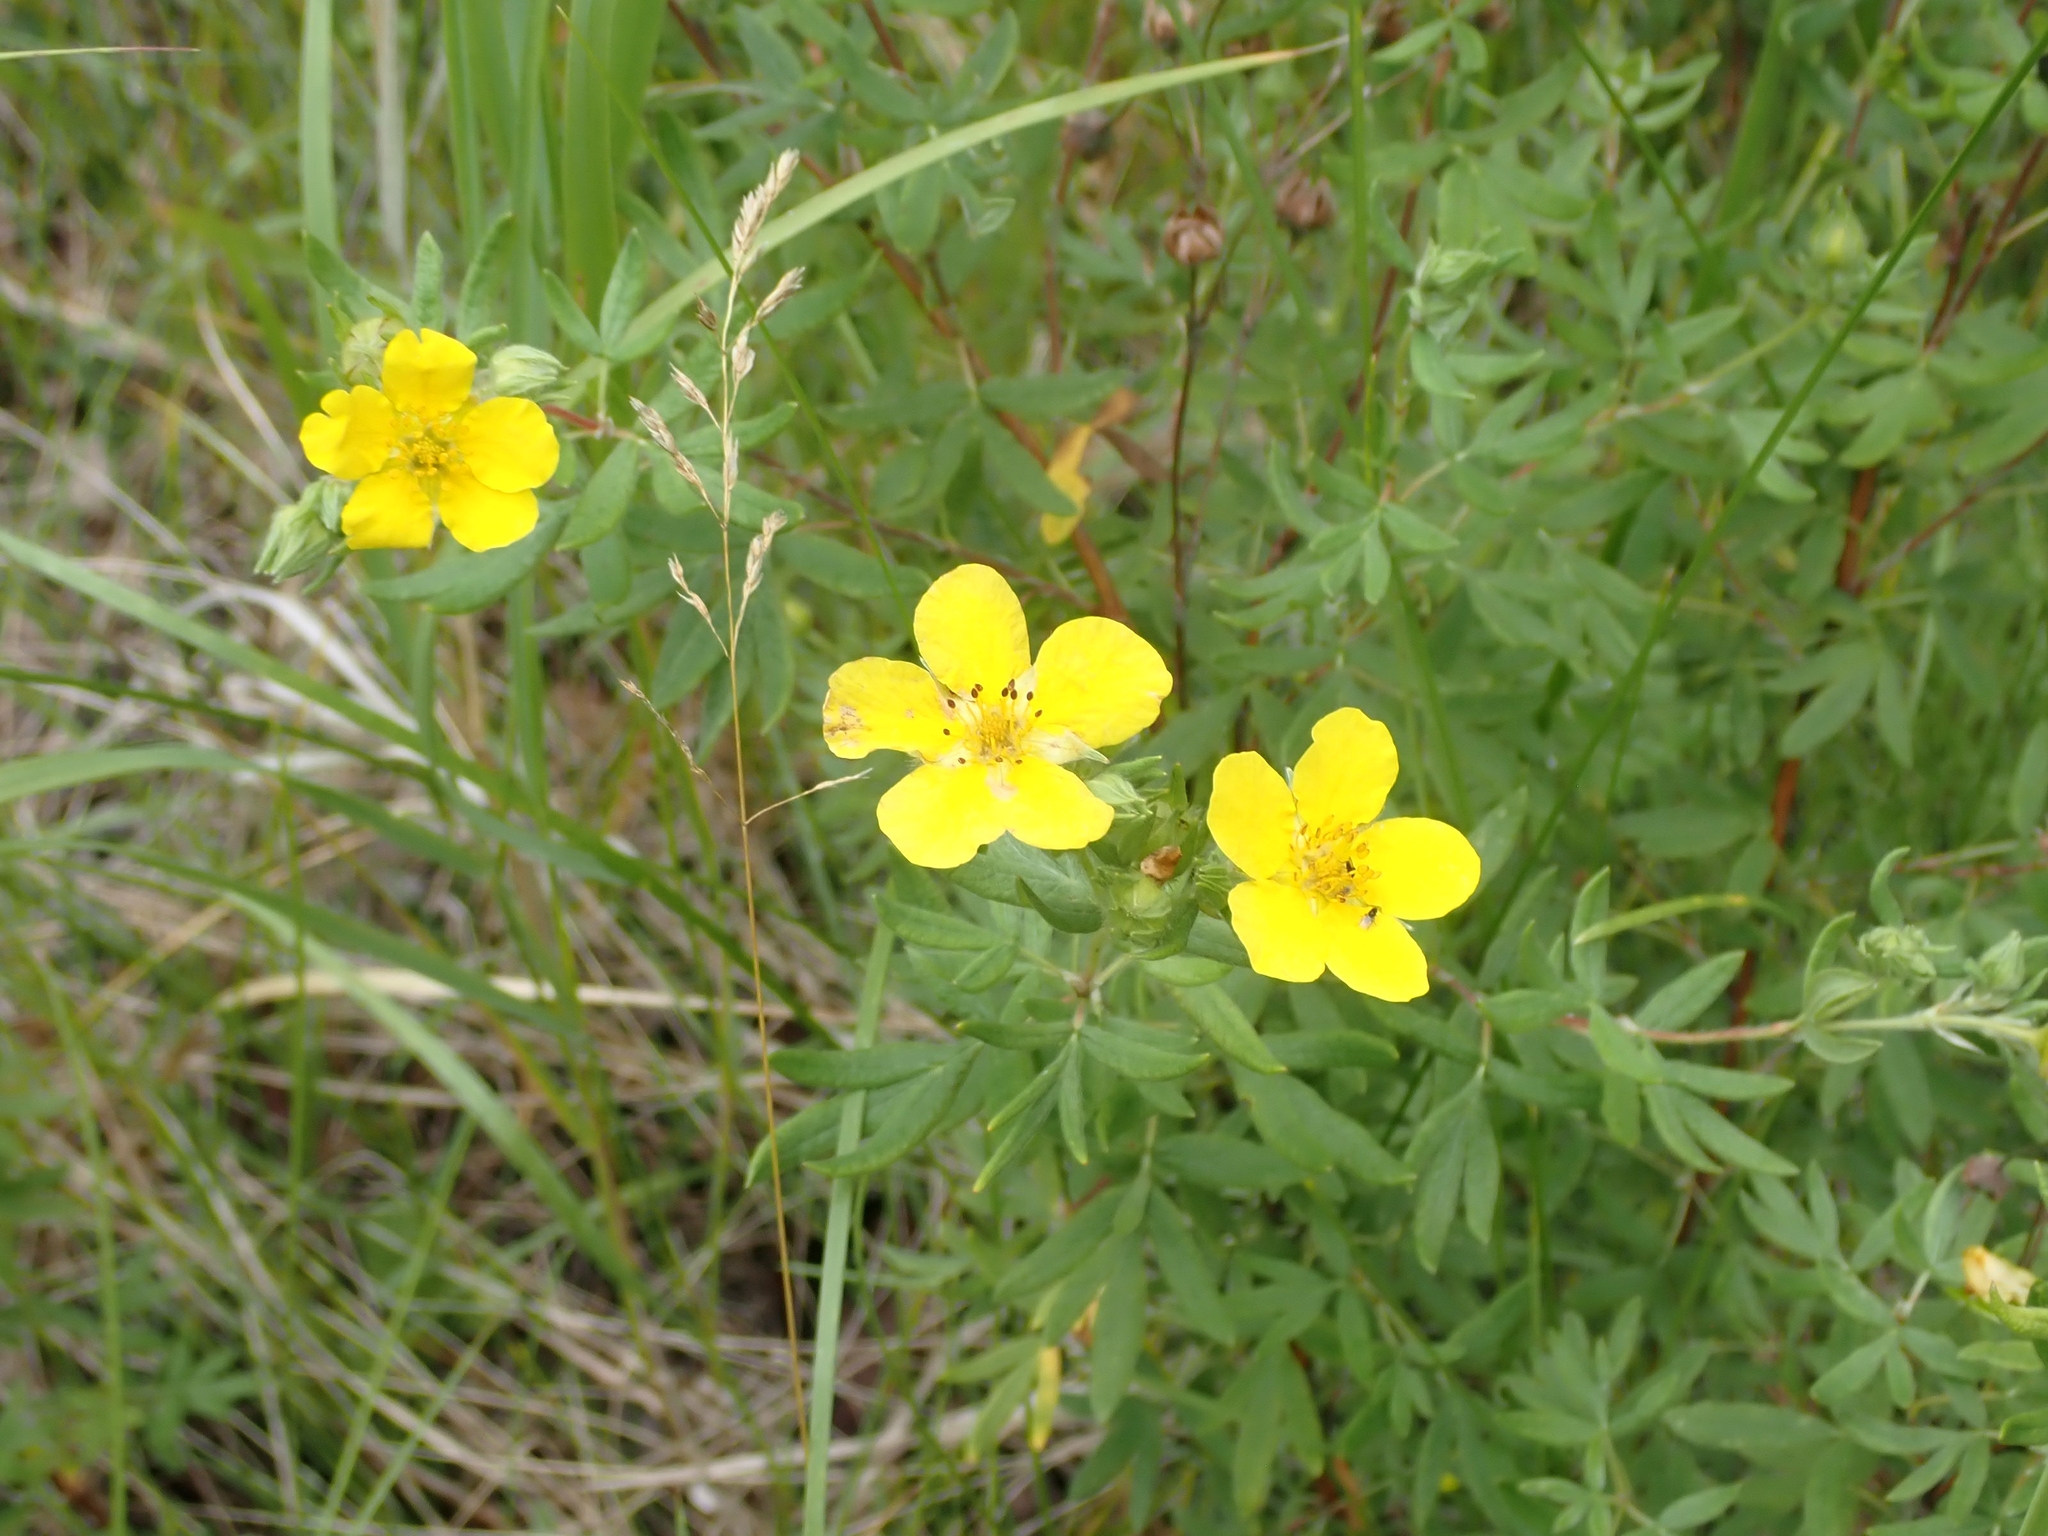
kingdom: Plantae
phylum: Tracheophyta
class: Magnoliopsida
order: Rosales
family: Rosaceae
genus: Dasiphora
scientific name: Dasiphora fruticosa
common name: Shrubby cinquefoil
